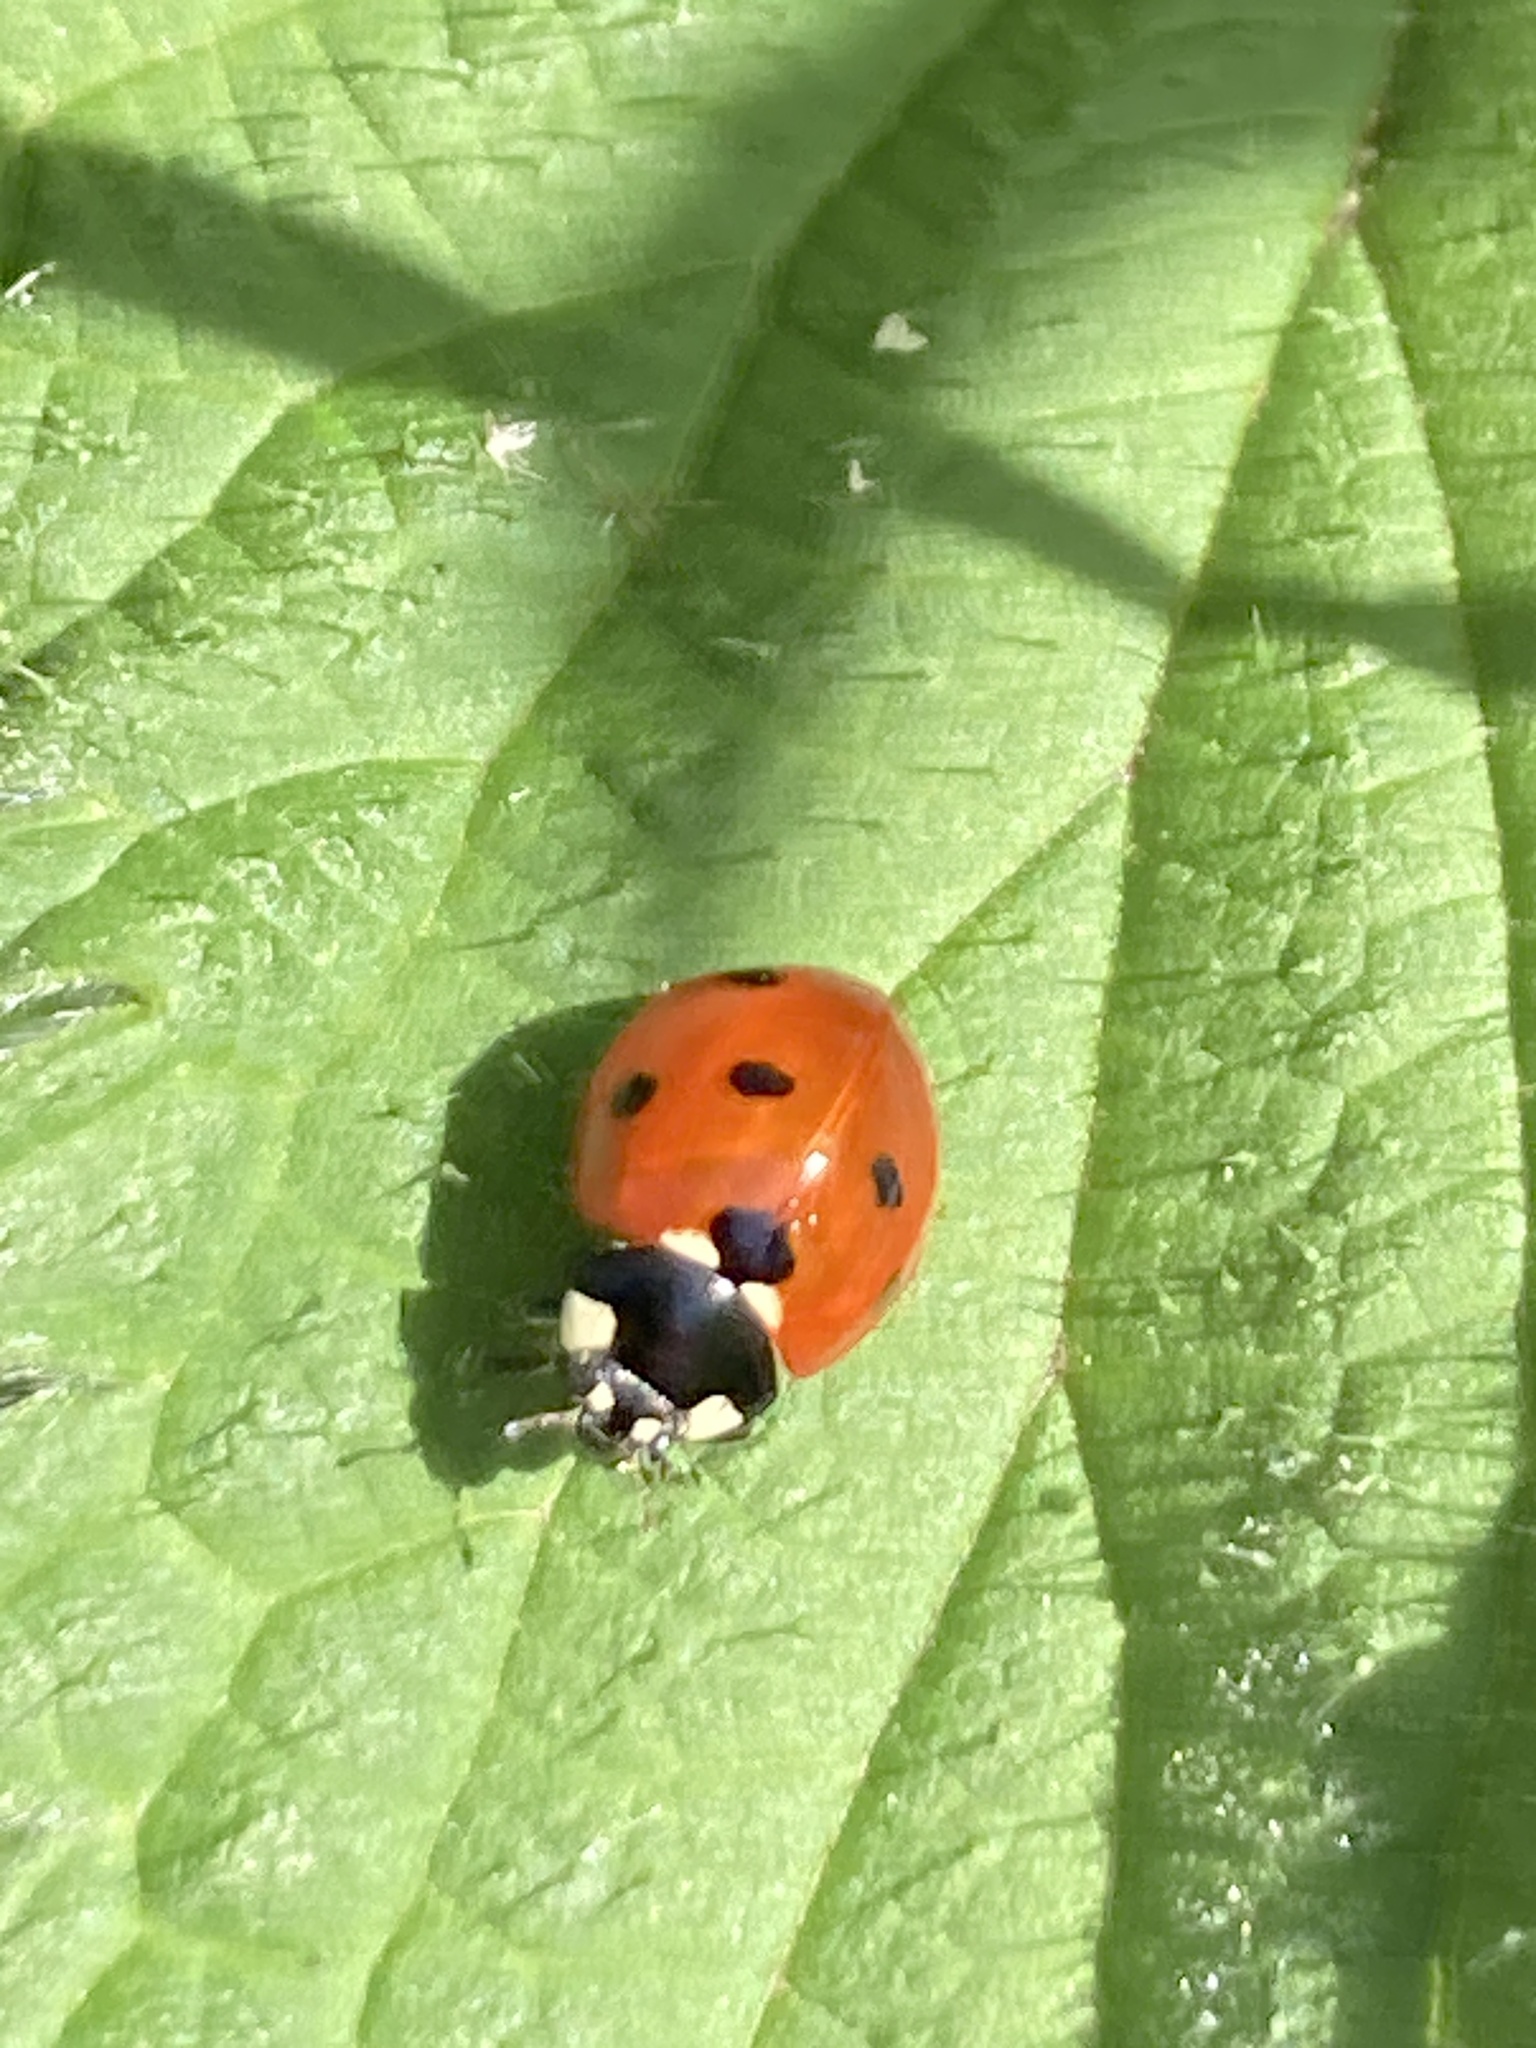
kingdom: Animalia
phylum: Arthropoda
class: Insecta
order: Coleoptera
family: Coccinellidae
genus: Coccinella
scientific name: Coccinella septempunctata
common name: Sevenspotted lady beetle
